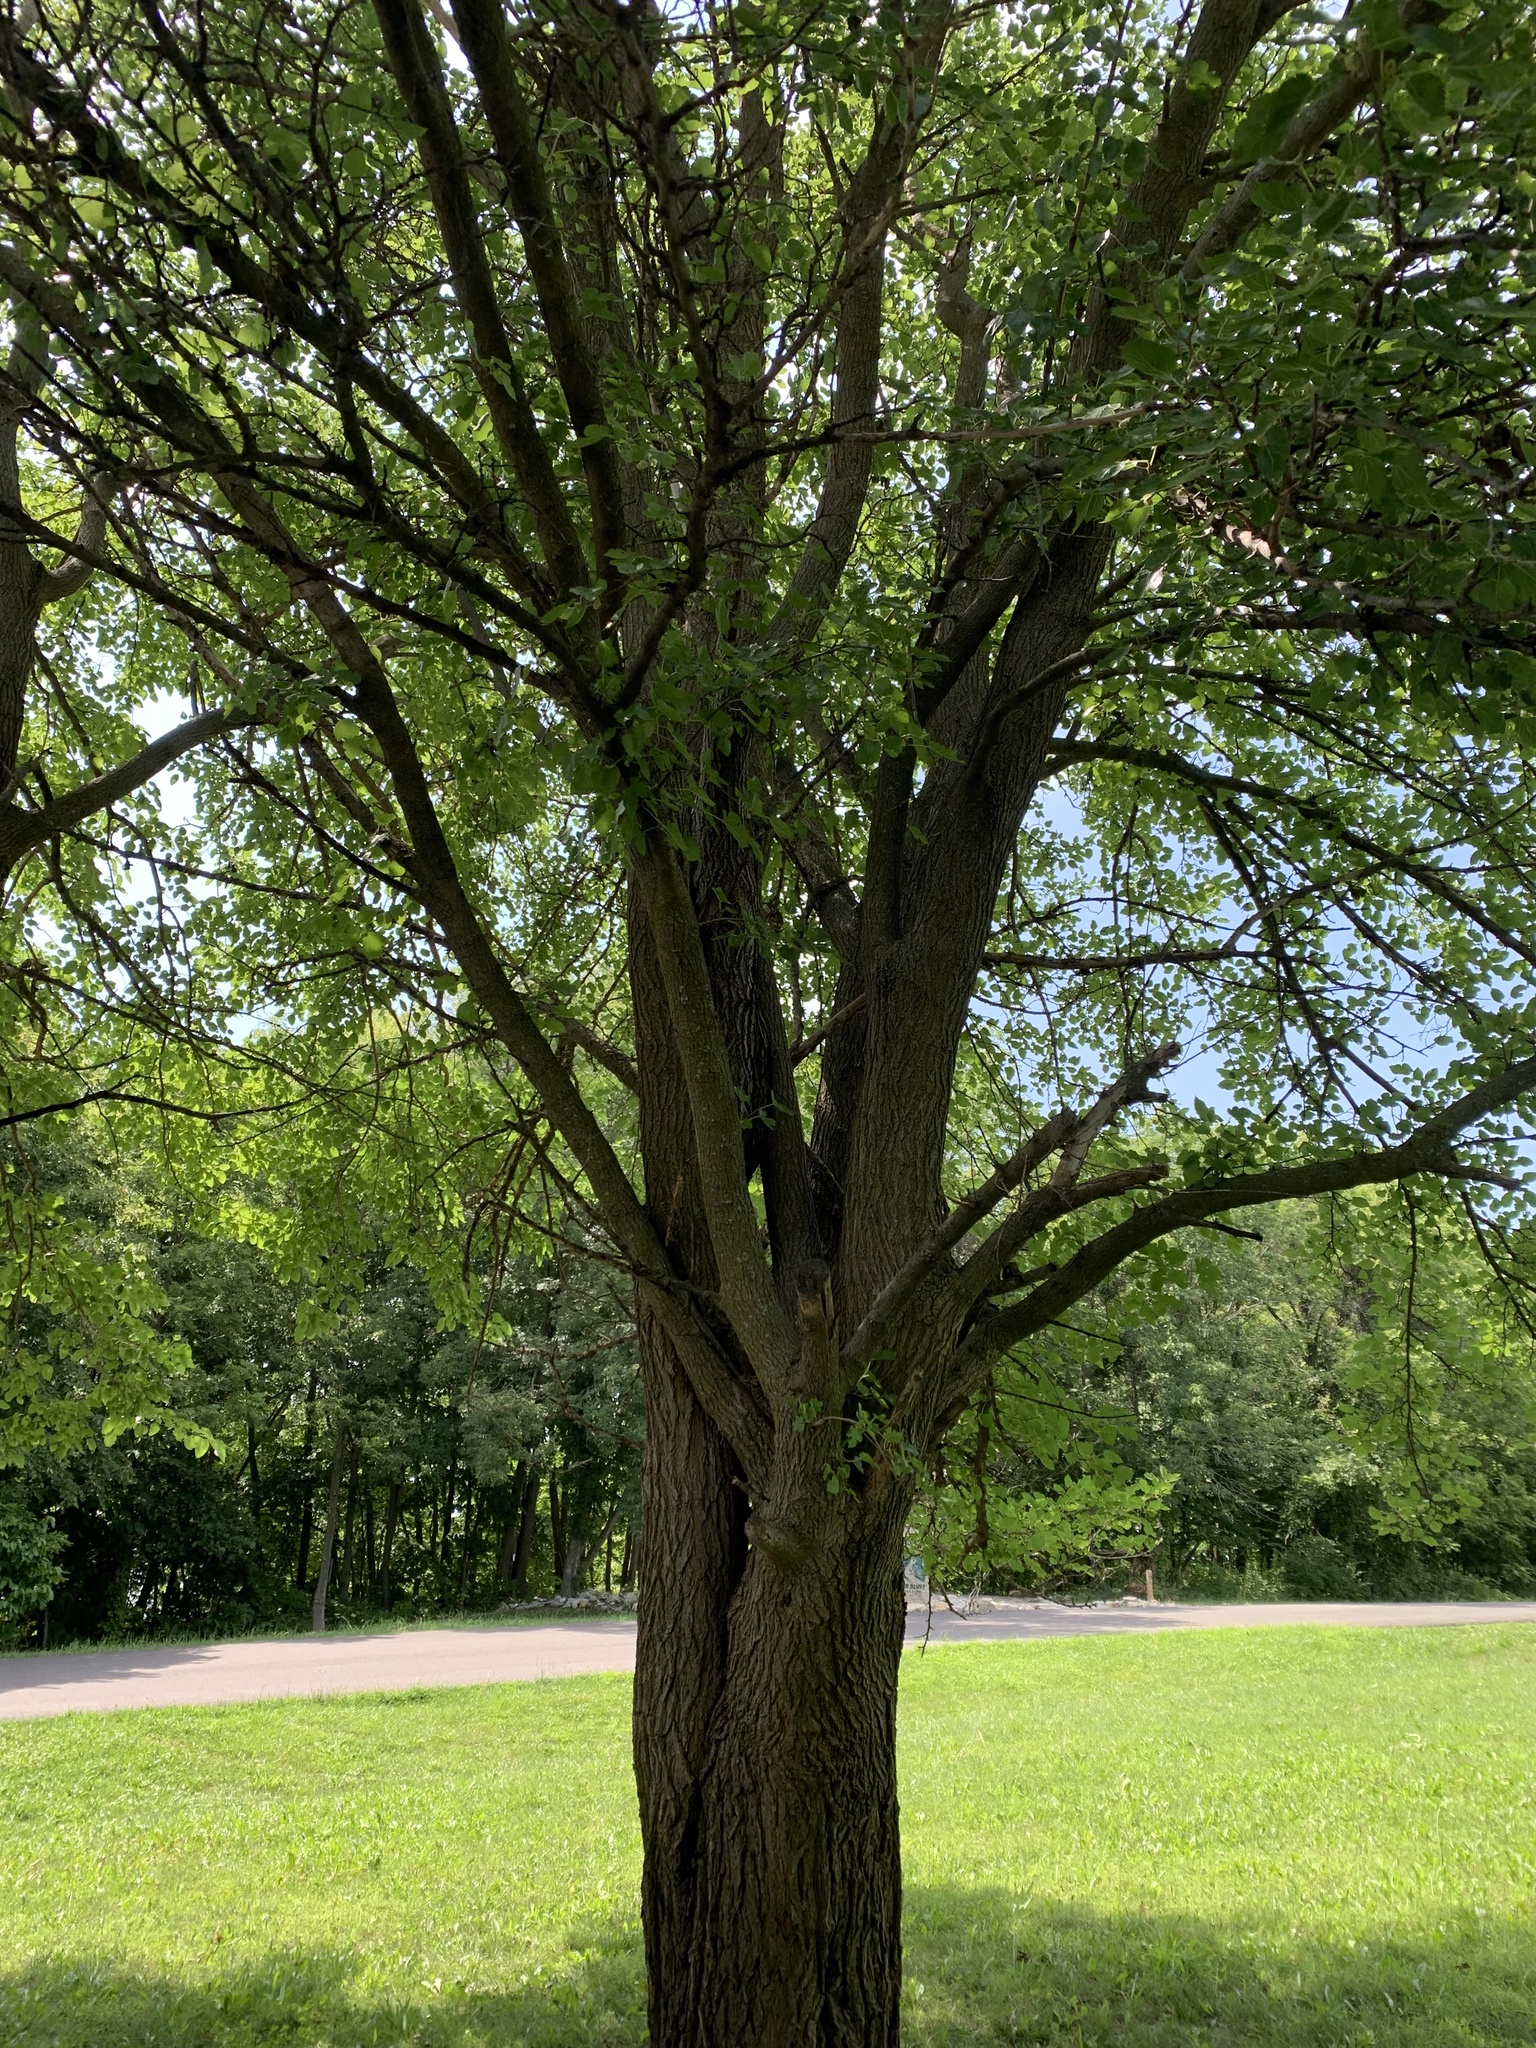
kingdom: Plantae
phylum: Tracheophyta
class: Magnoliopsida
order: Rosales
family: Moraceae
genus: Morus
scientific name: Morus alba
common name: White mulberry
